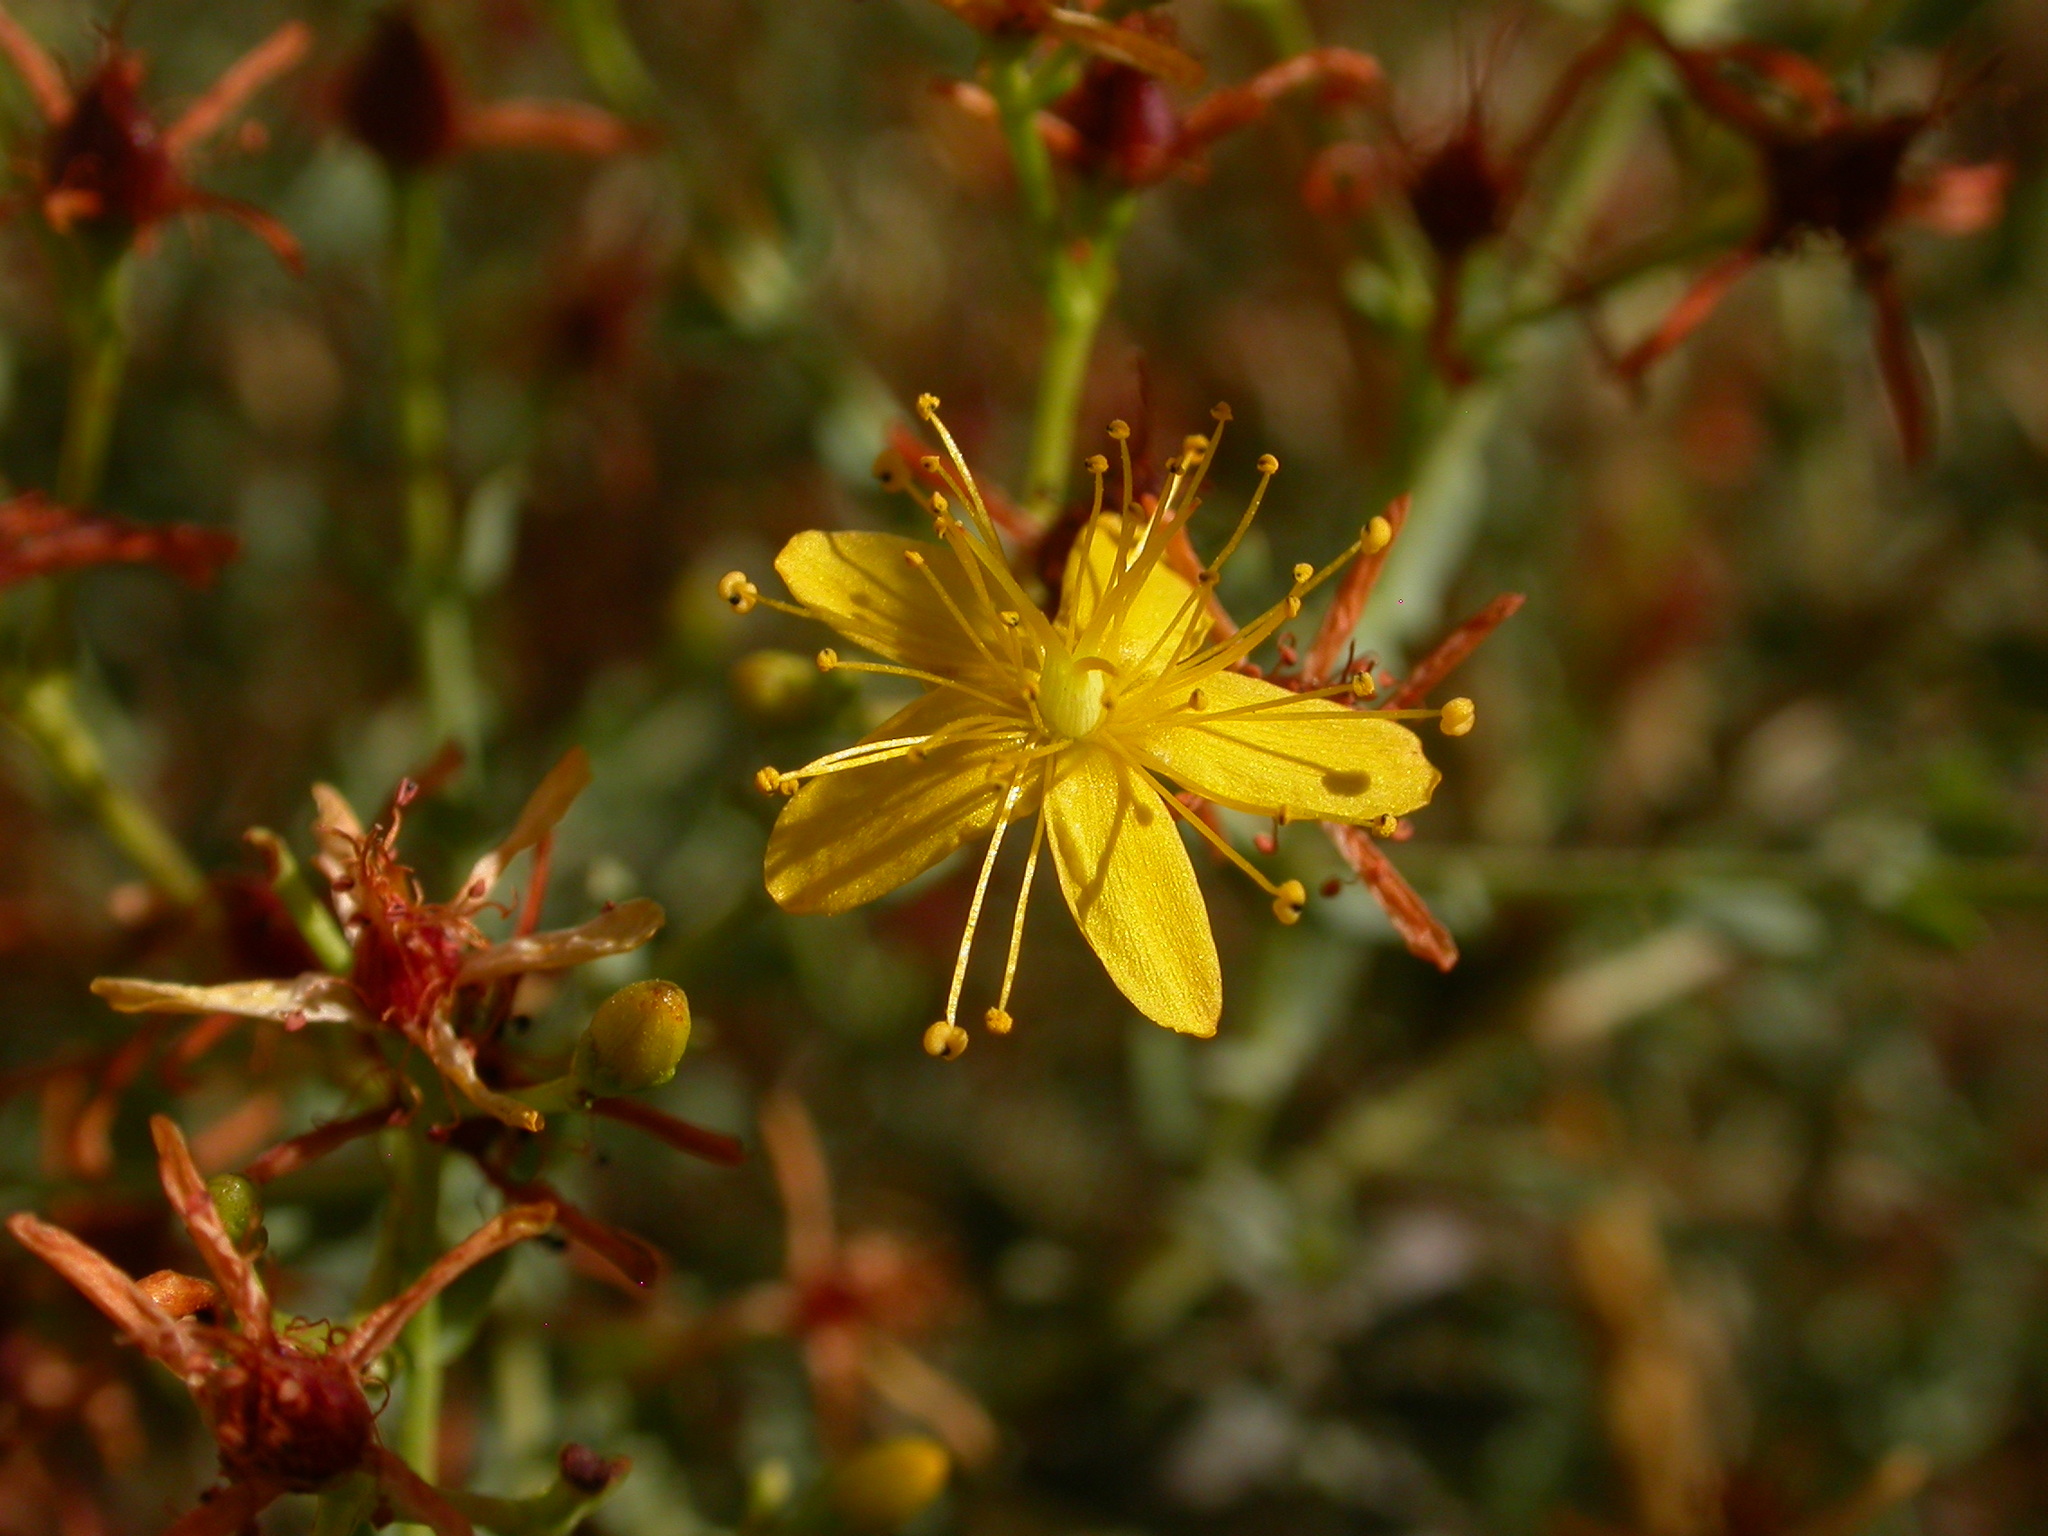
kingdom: Plantae
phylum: Tracheophyta
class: Magnoliopsida
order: Malpighiales
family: Hypericaceae
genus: Hypericum
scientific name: Hypericum triquetrifolium
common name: Tangled hypericum
